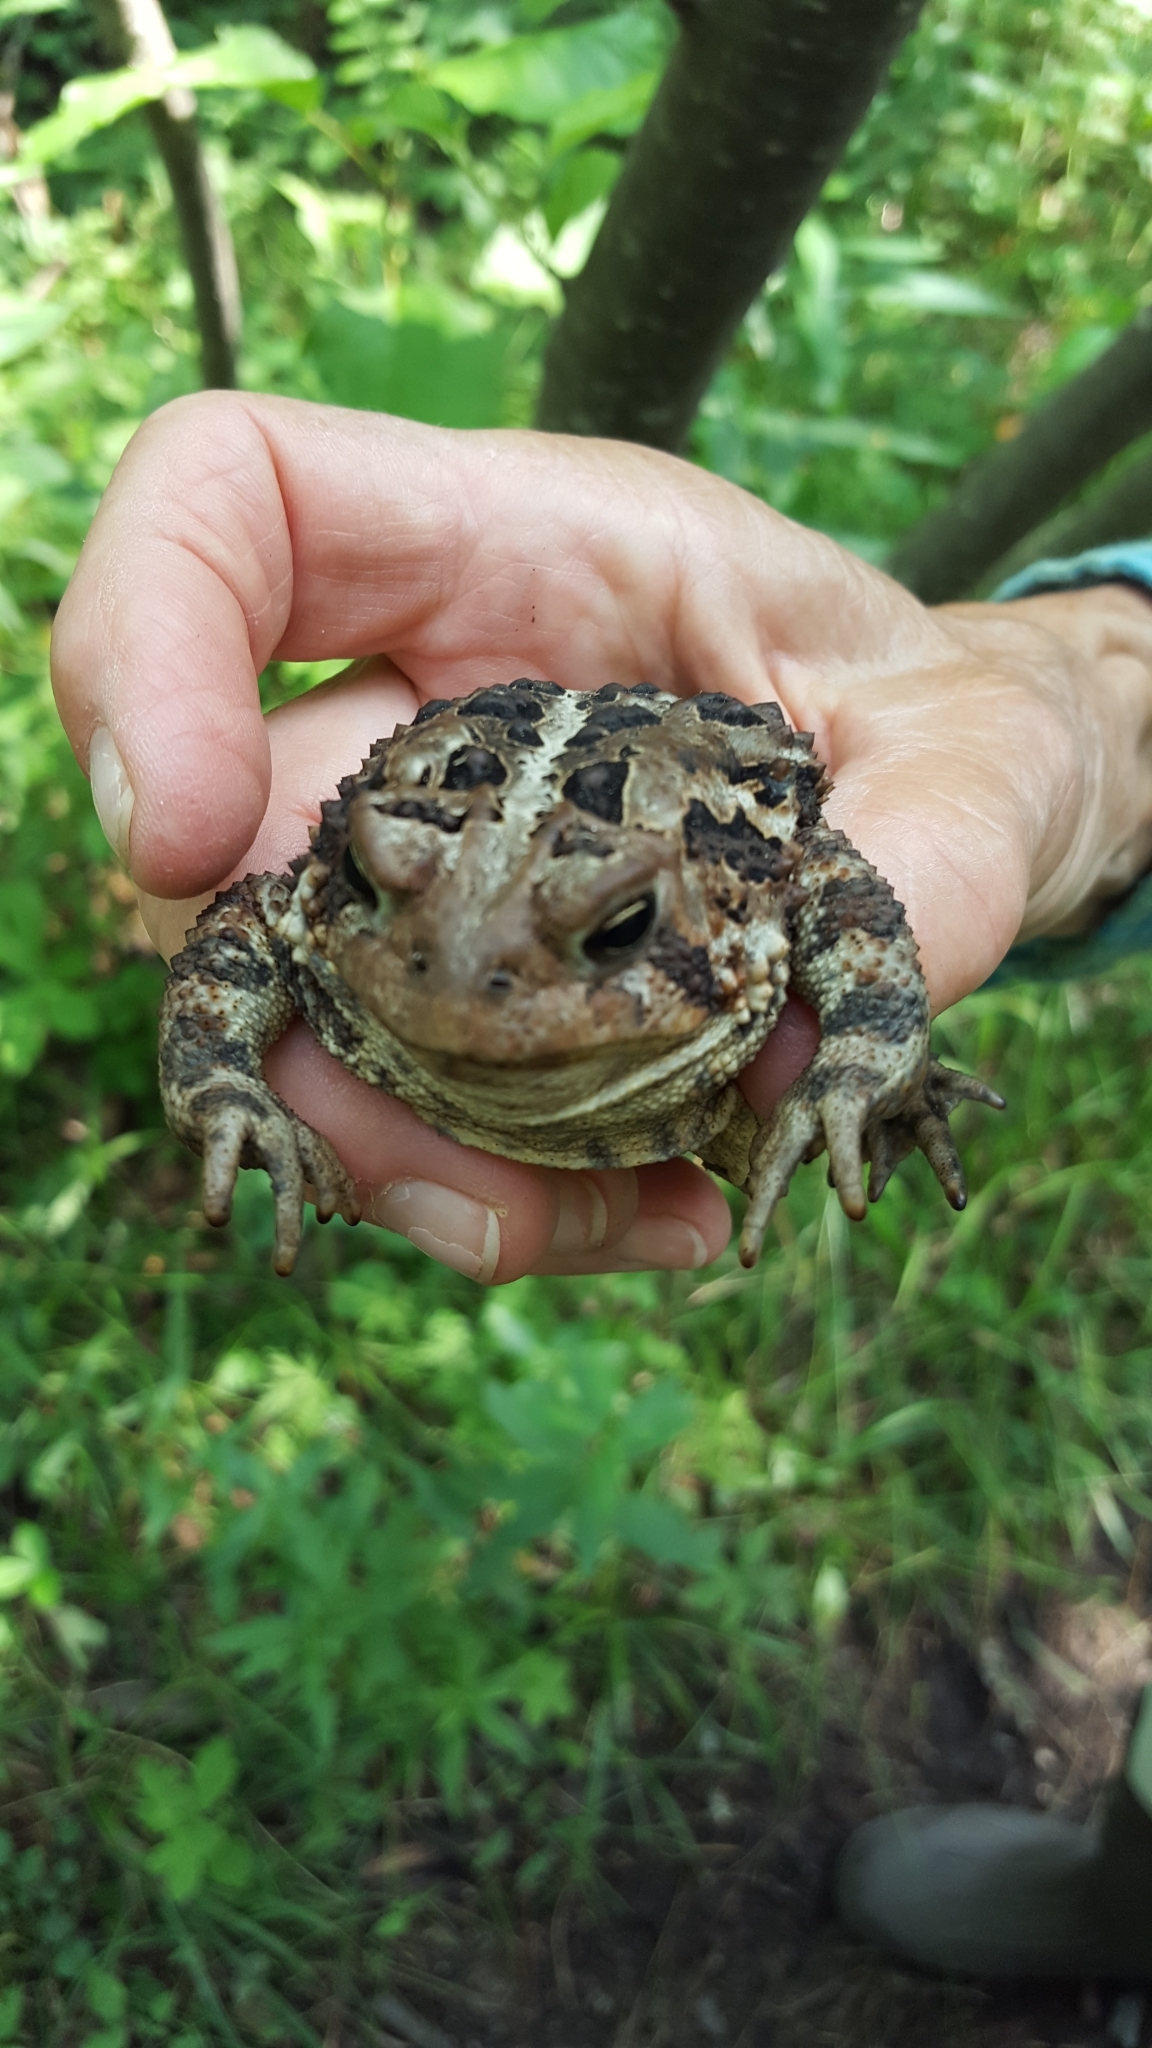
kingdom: Animalia
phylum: Chordata
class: Amphibia
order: Anura
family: Bufonidae
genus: Anaxyrus
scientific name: Anaxyrus americanus
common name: American toad
